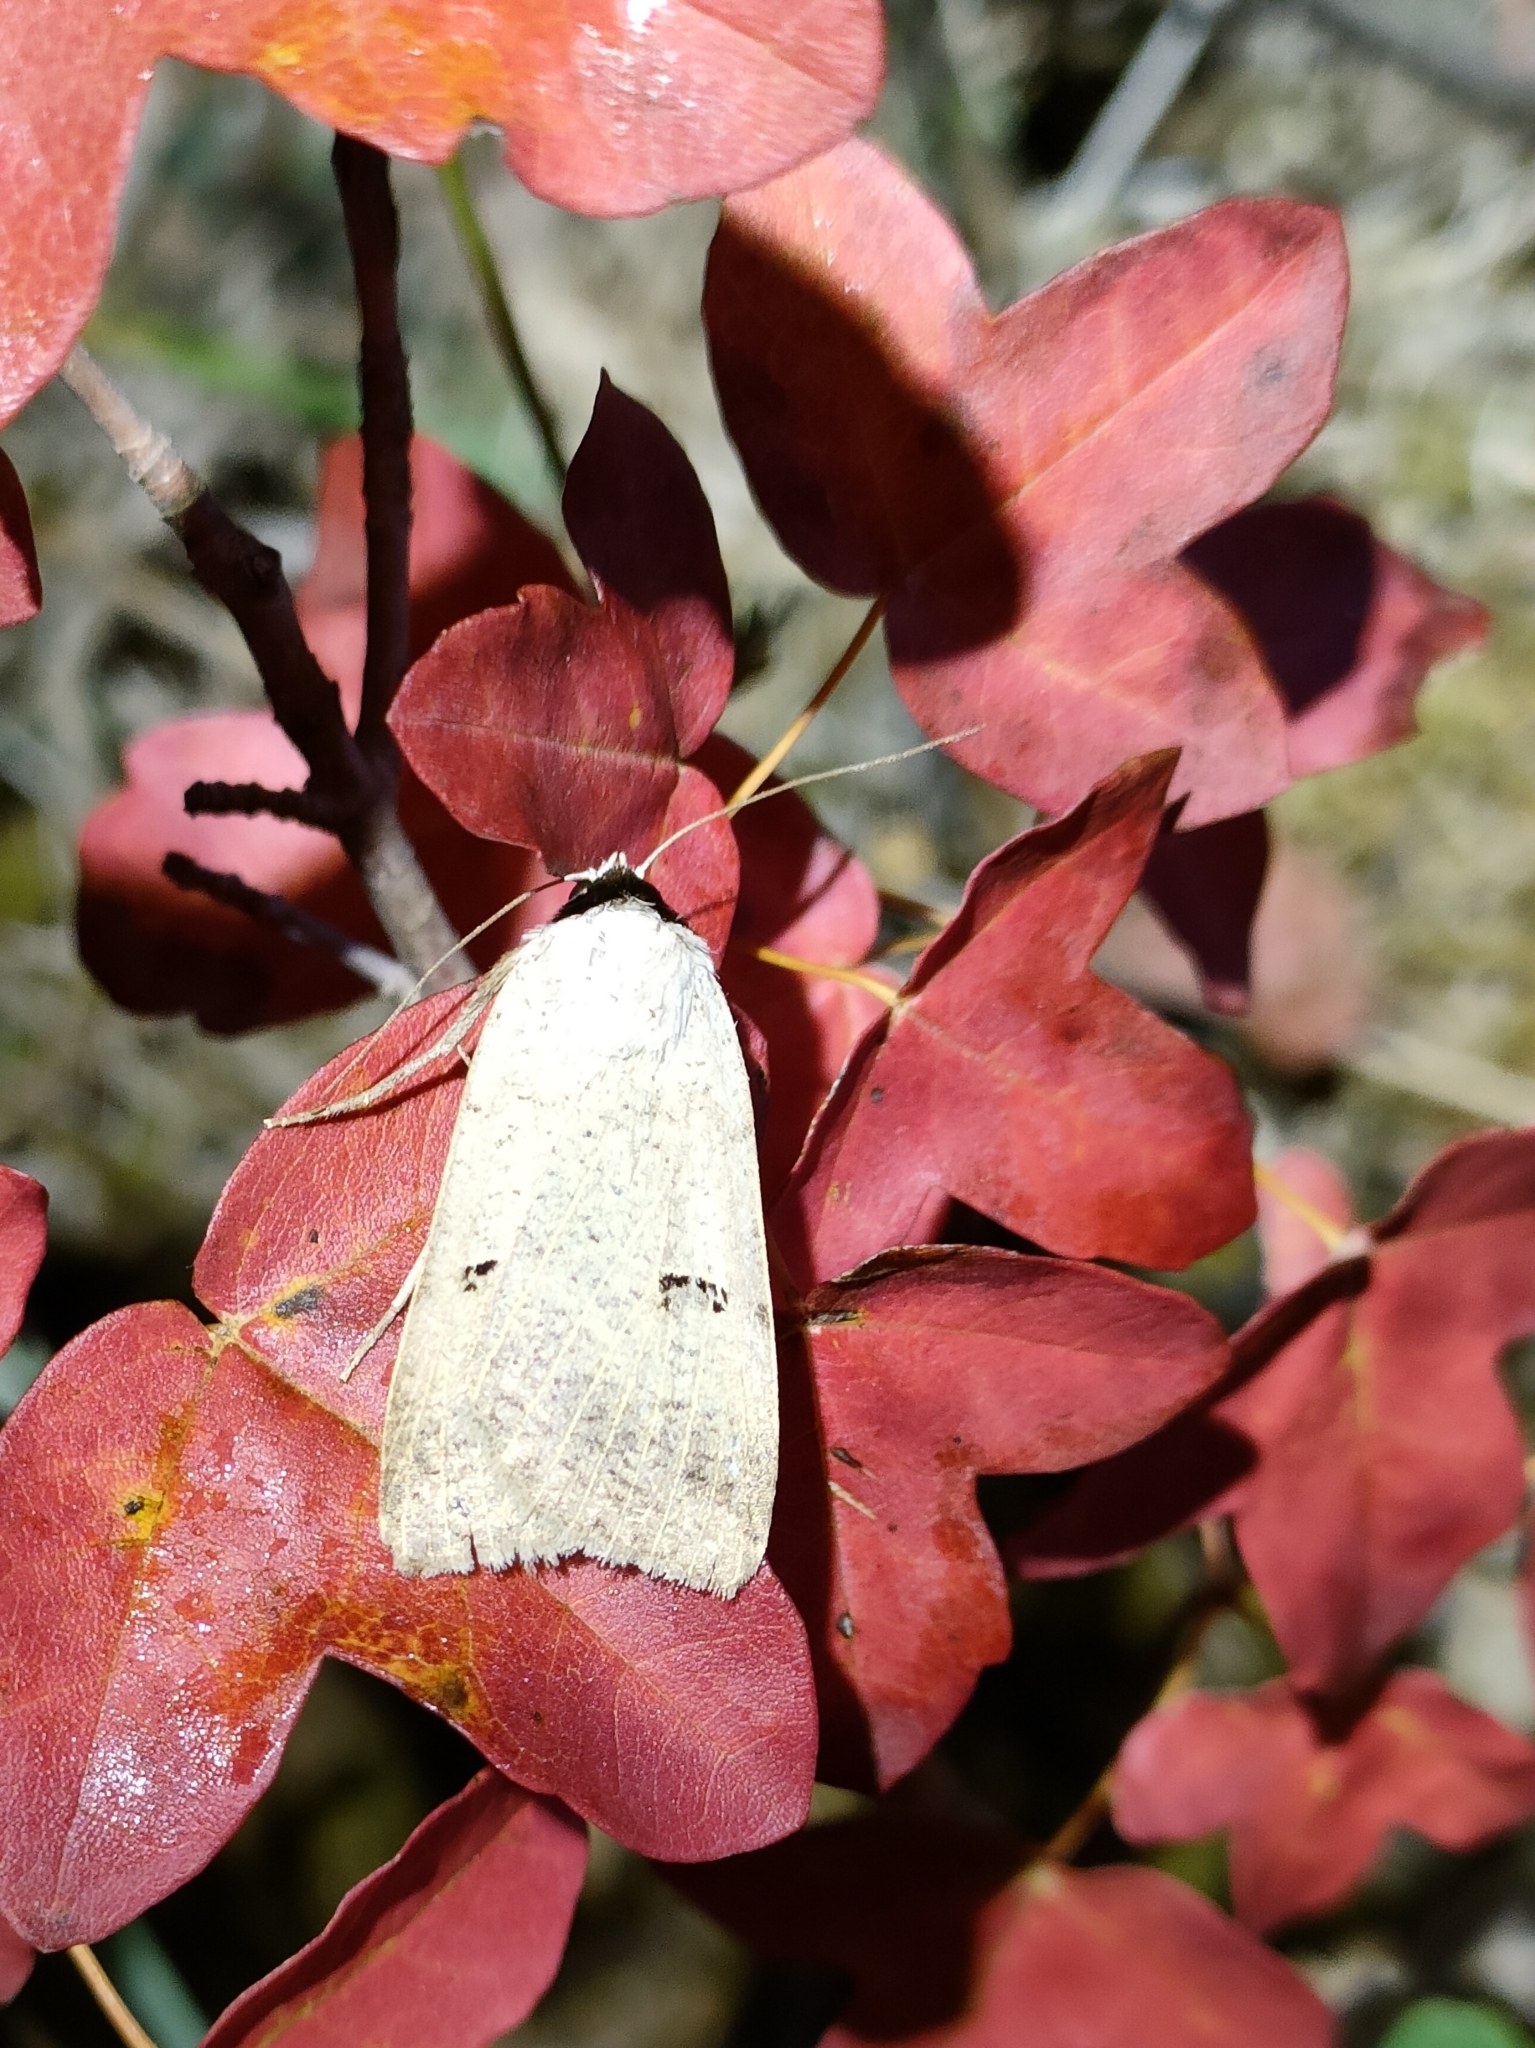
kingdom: Animalia
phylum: Arthropoda
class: Insecta
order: Lepidoptera
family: Erebidae
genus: Lygephila
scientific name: Lygephila craccae
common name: Scarce blackneck
